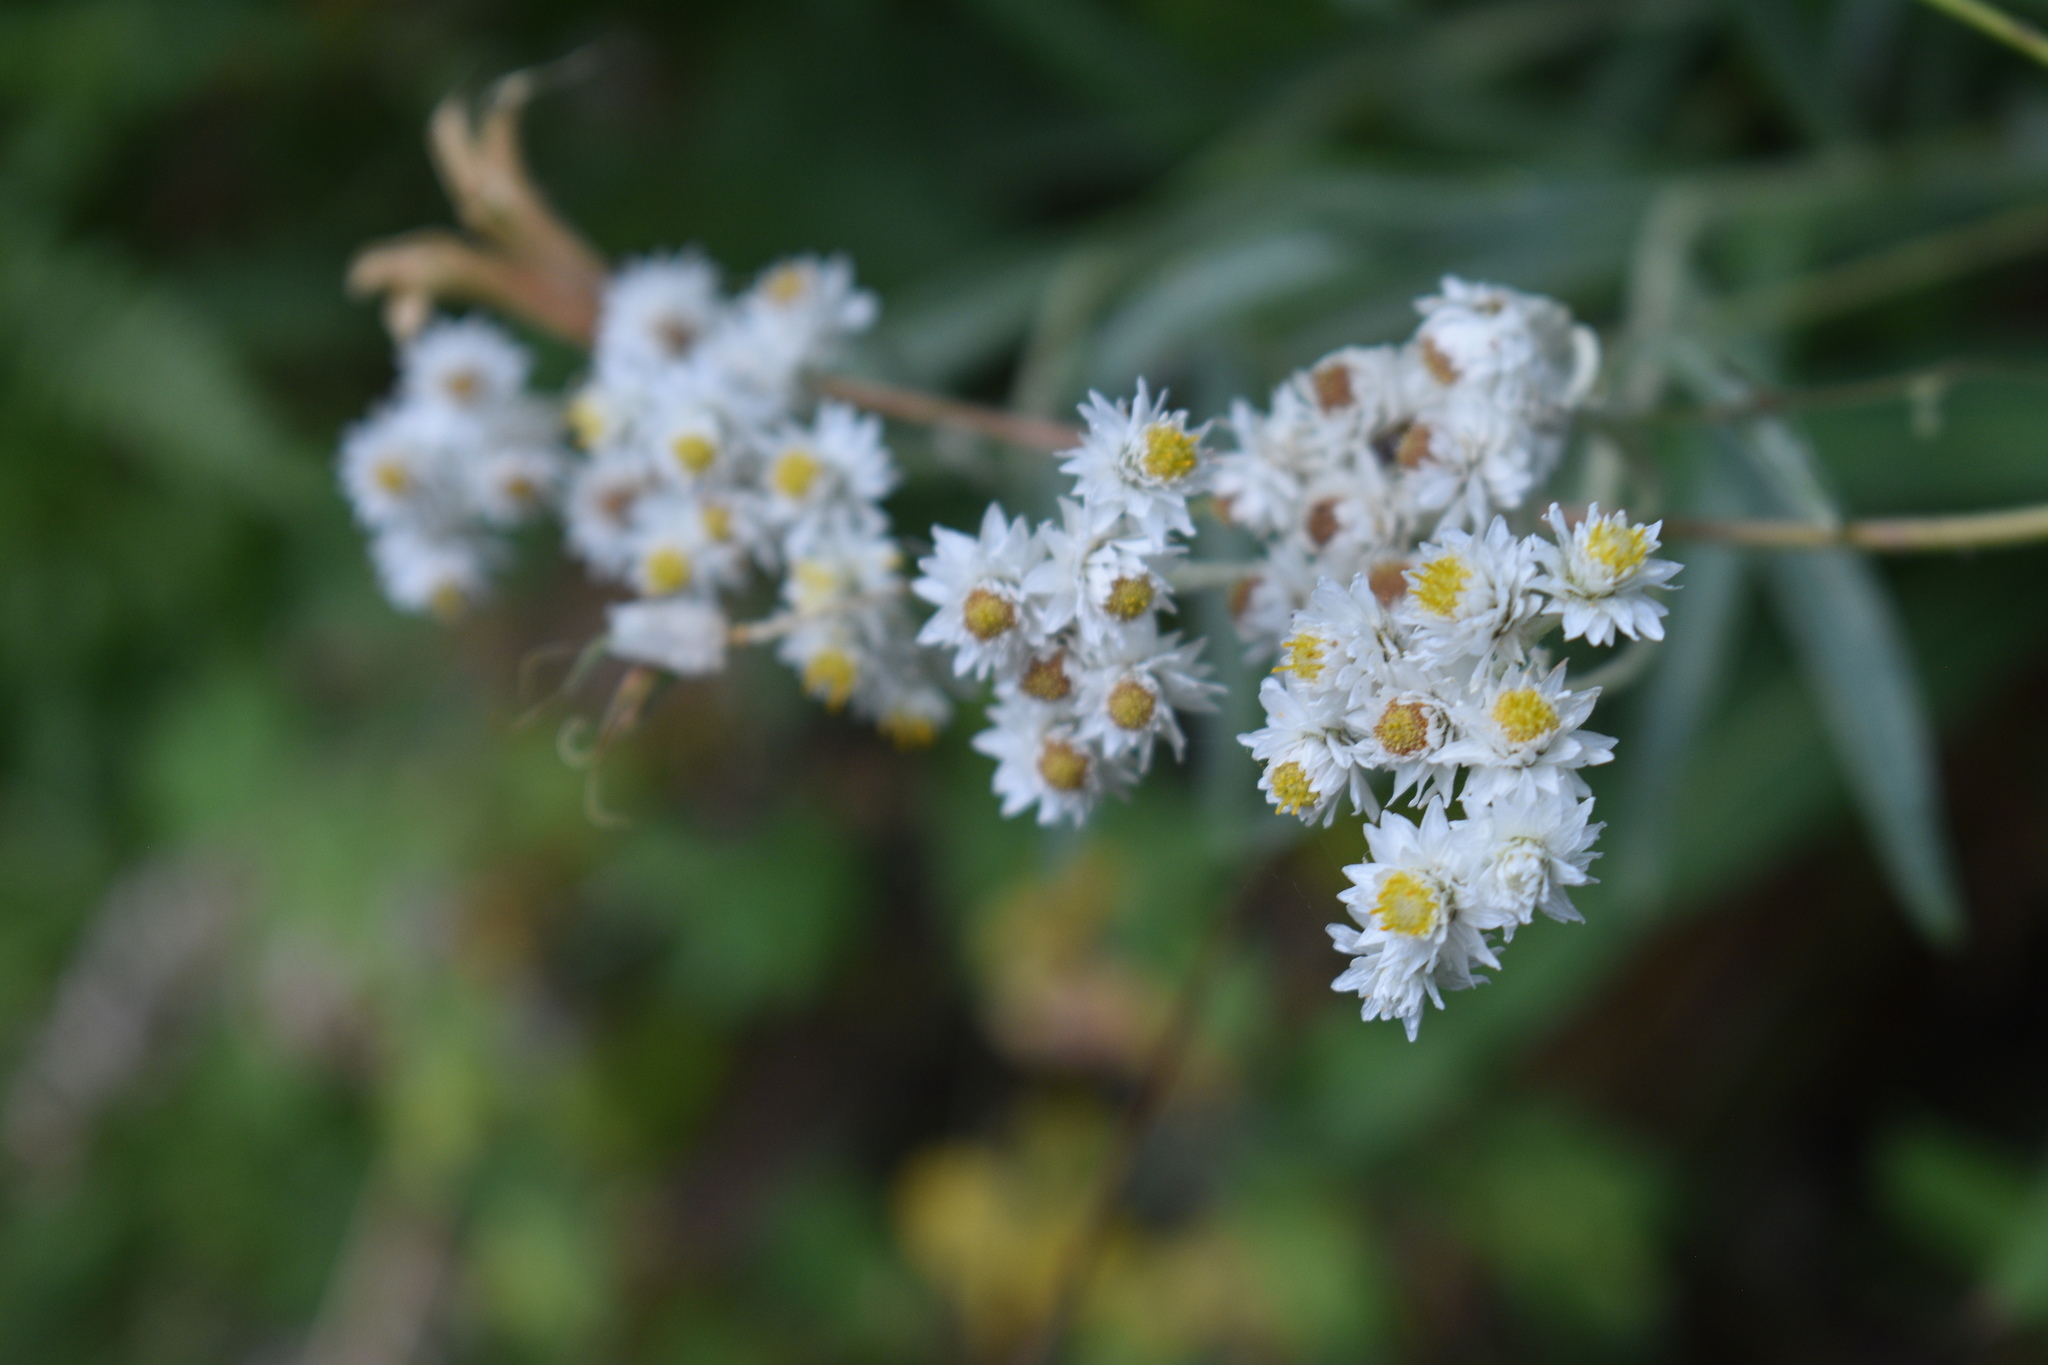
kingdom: Plantae
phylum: Tracheophyta
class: Magnoliopsida
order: Asterales
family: Asteraceae
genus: Anaphalis
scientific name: Anaphalis margaritacea
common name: Pearly everlasting
